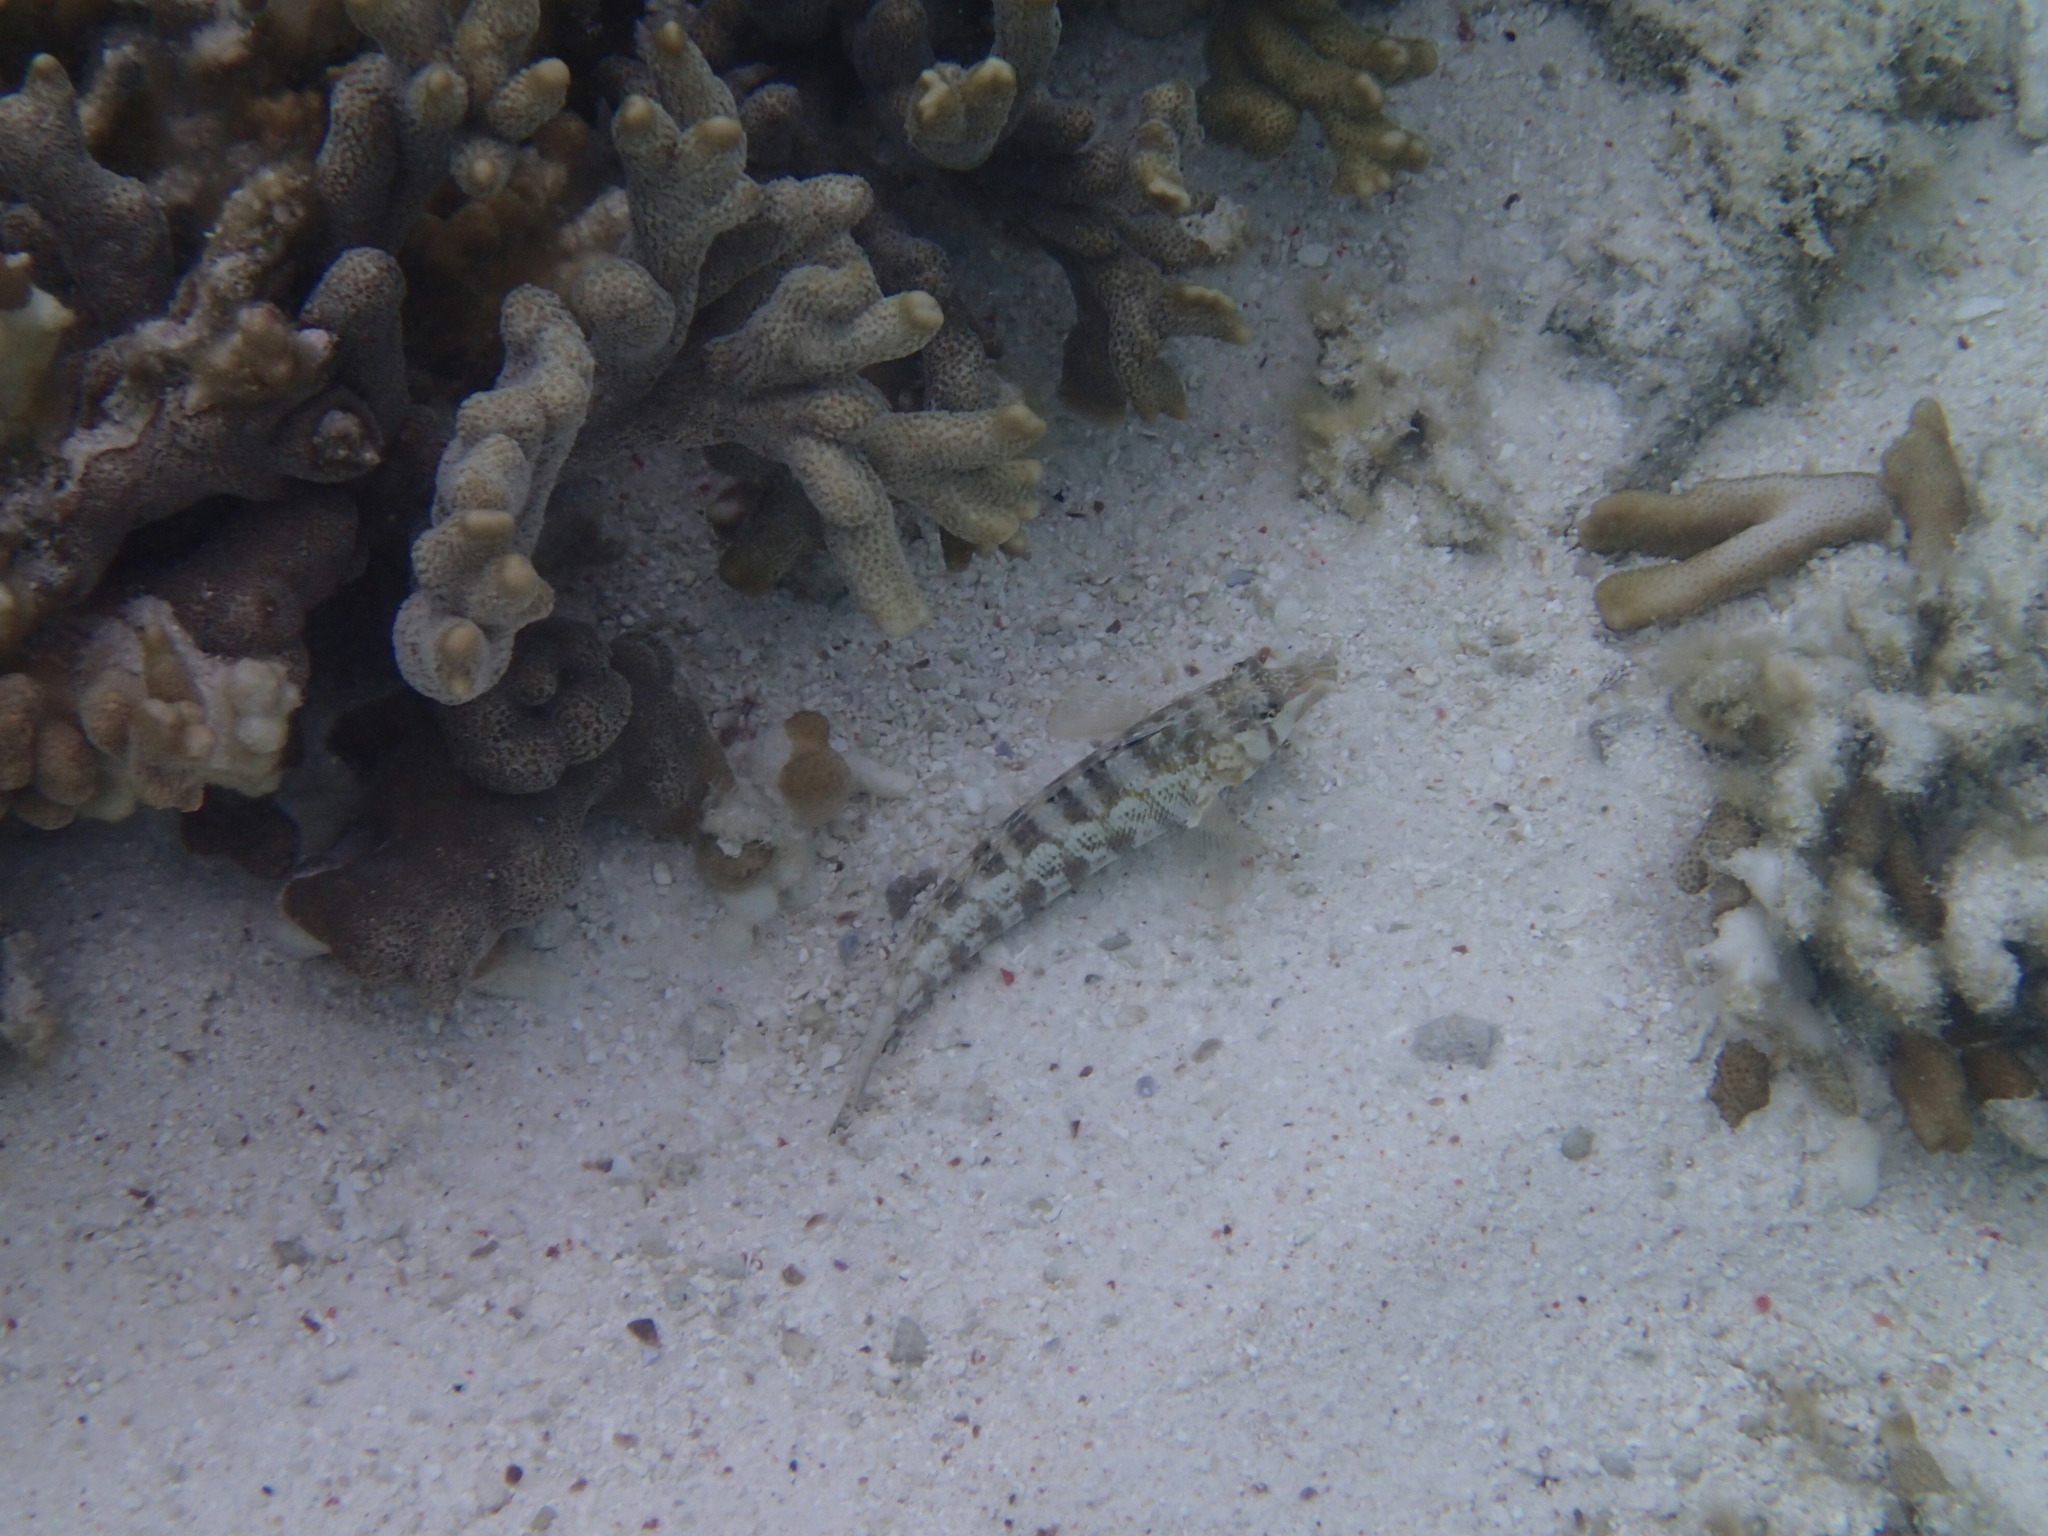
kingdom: Animalia
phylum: Chordata
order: Perciformes
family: Pinguipedidae
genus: Parapercis
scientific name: Parapercis australis
